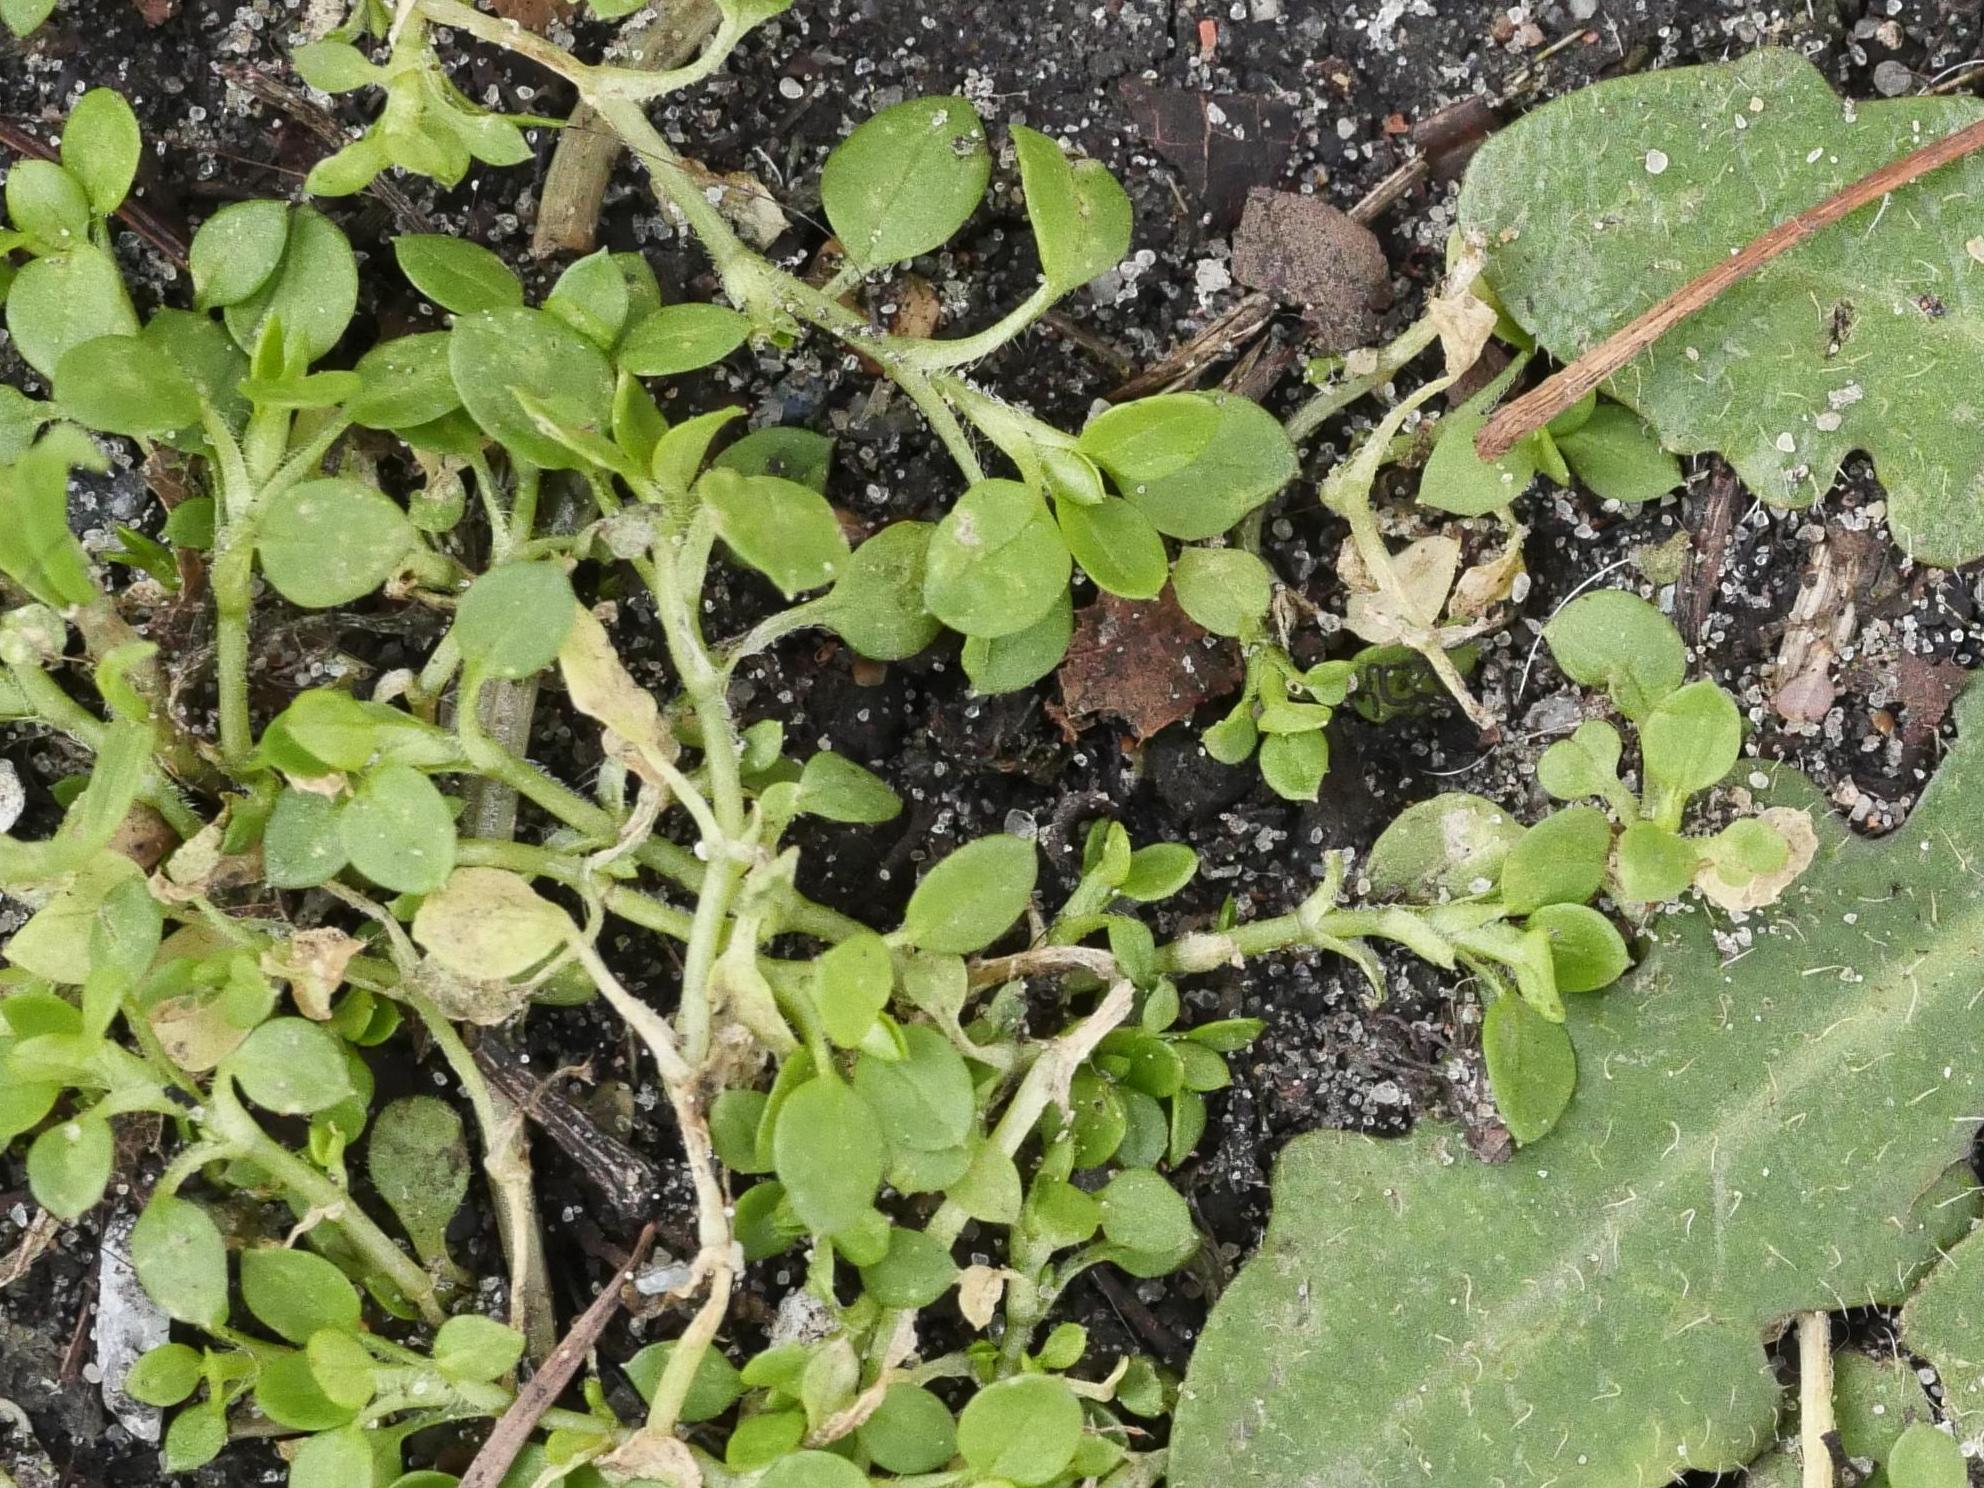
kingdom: Plantae
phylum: Tracheophyta
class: Magnoliopsida
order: Caryophyllales
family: Caryophyllaceae
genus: Stellaria
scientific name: Stellaria media
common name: Common chickweed
